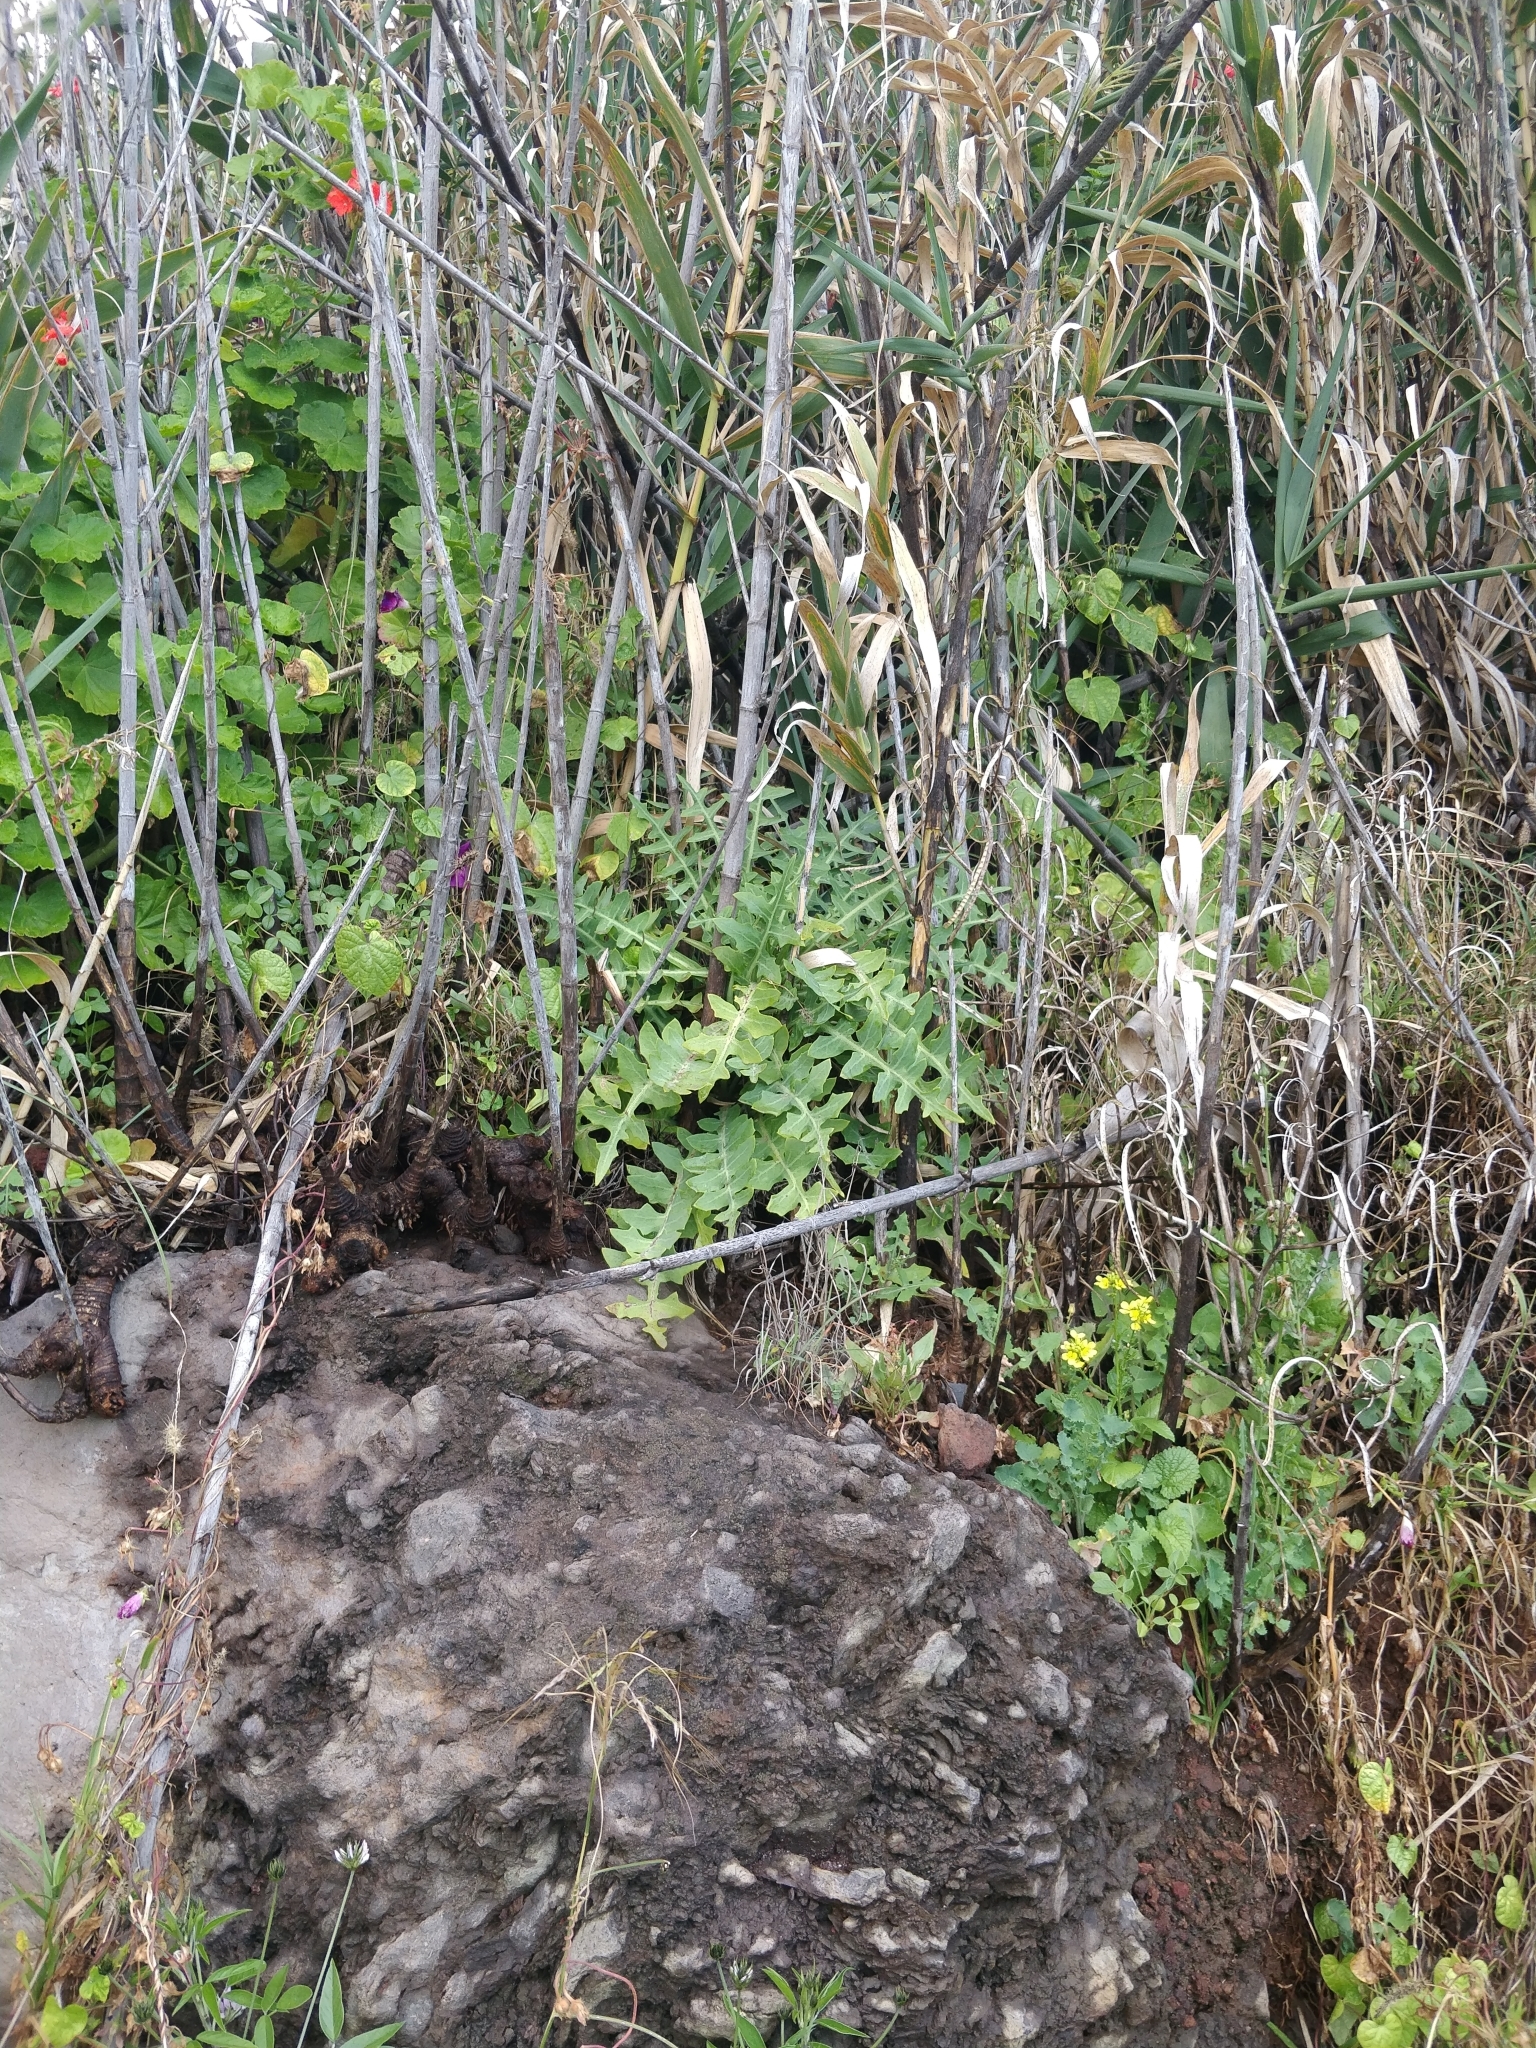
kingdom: Plantae
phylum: Tracheophyta
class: Magnoliopsida
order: Asterales
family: Asteraceae
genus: Sonchus
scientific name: Sonchus ustulatus
